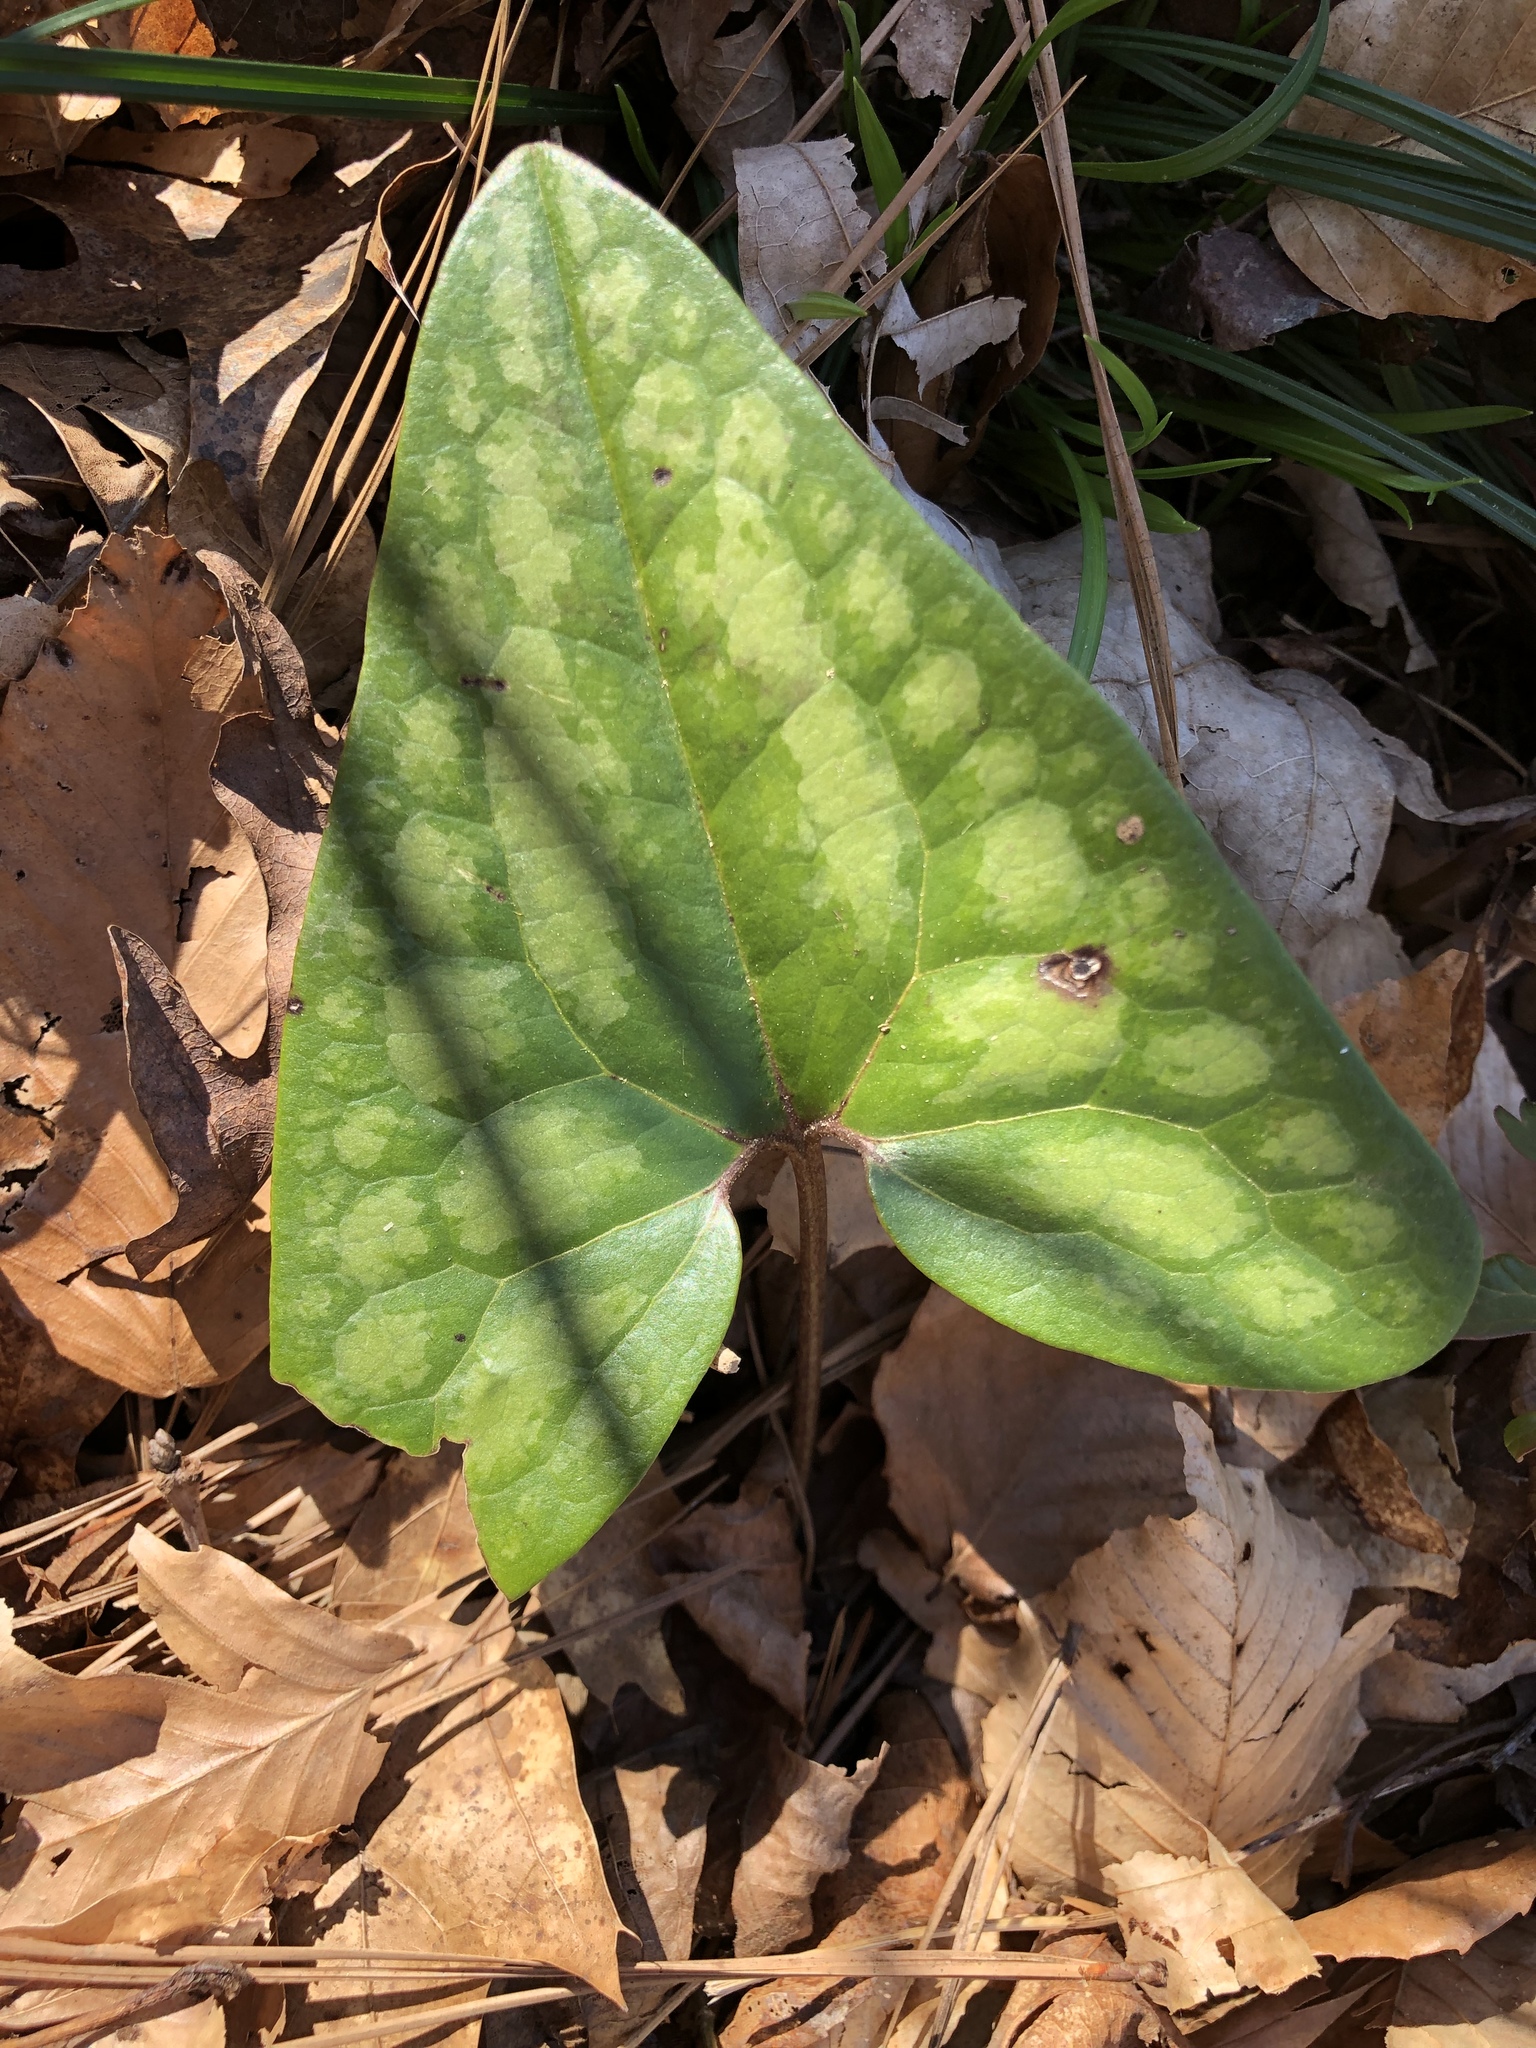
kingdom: Plantae
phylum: Tracheophyta
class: Magnoliopsida
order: Piperales
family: Aristolochiaceae
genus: Hexastylis
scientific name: Hexastylis arifolia
